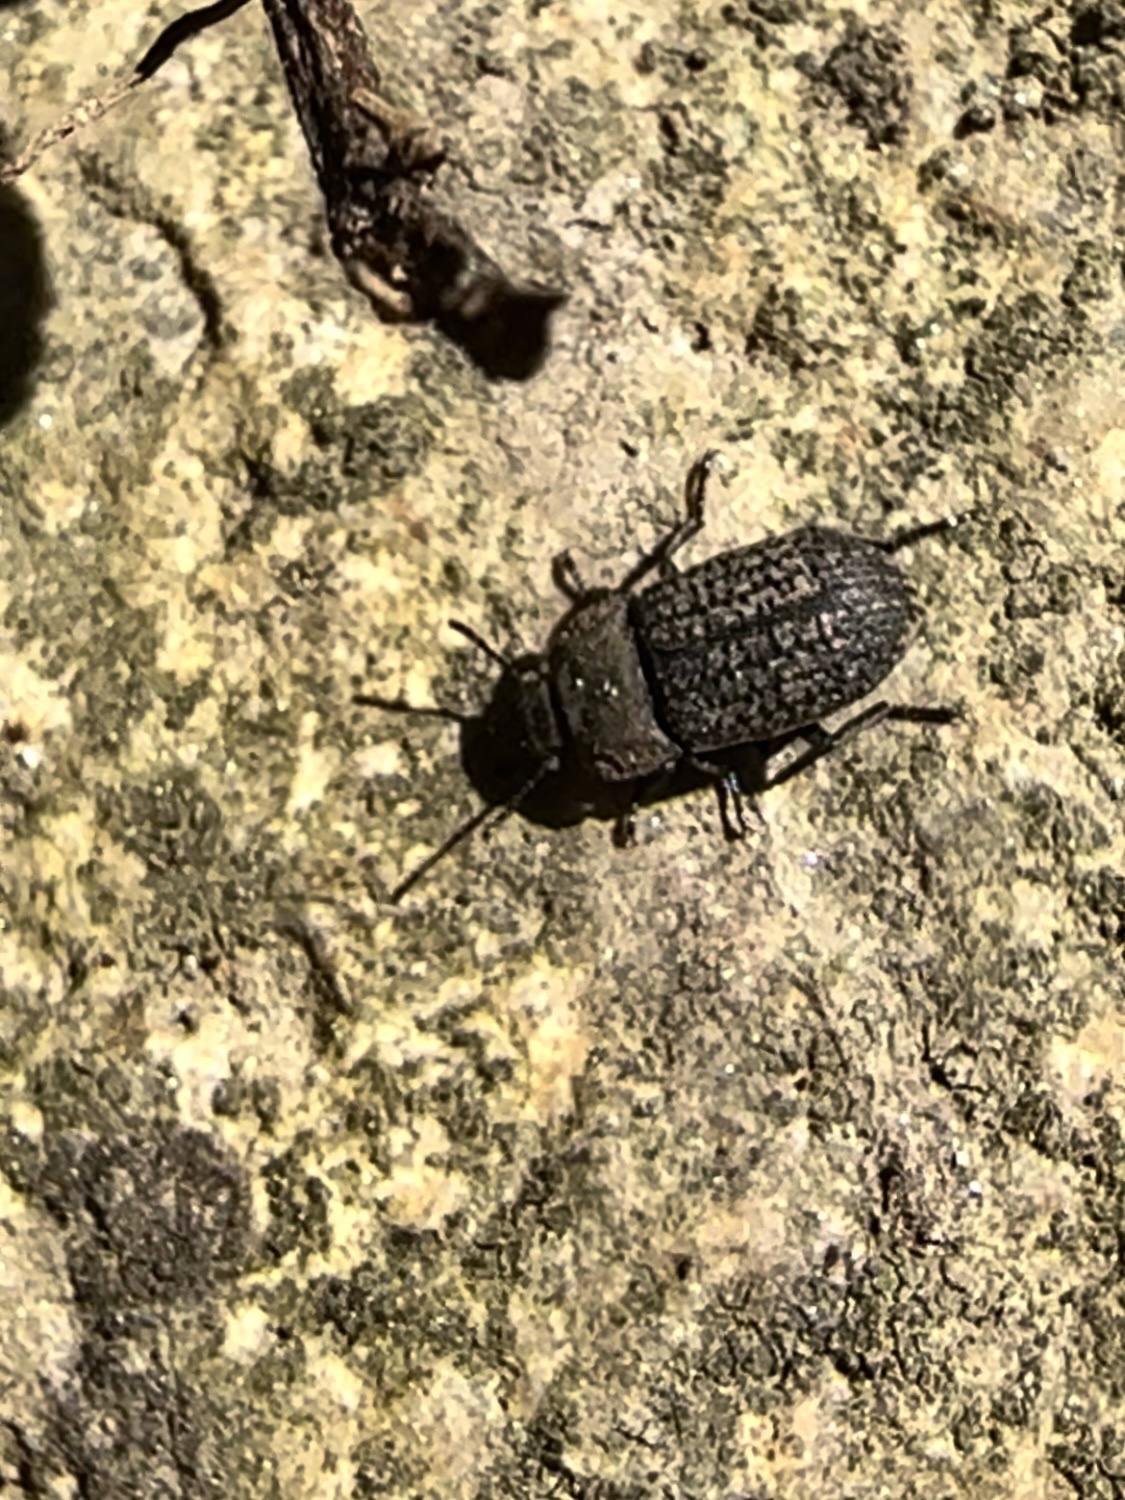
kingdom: Animalia
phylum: Arthropoda
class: Insecta
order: Coleoptera
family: Tenebrionidae
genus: Opatrum
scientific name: Opatrum sabulosum
